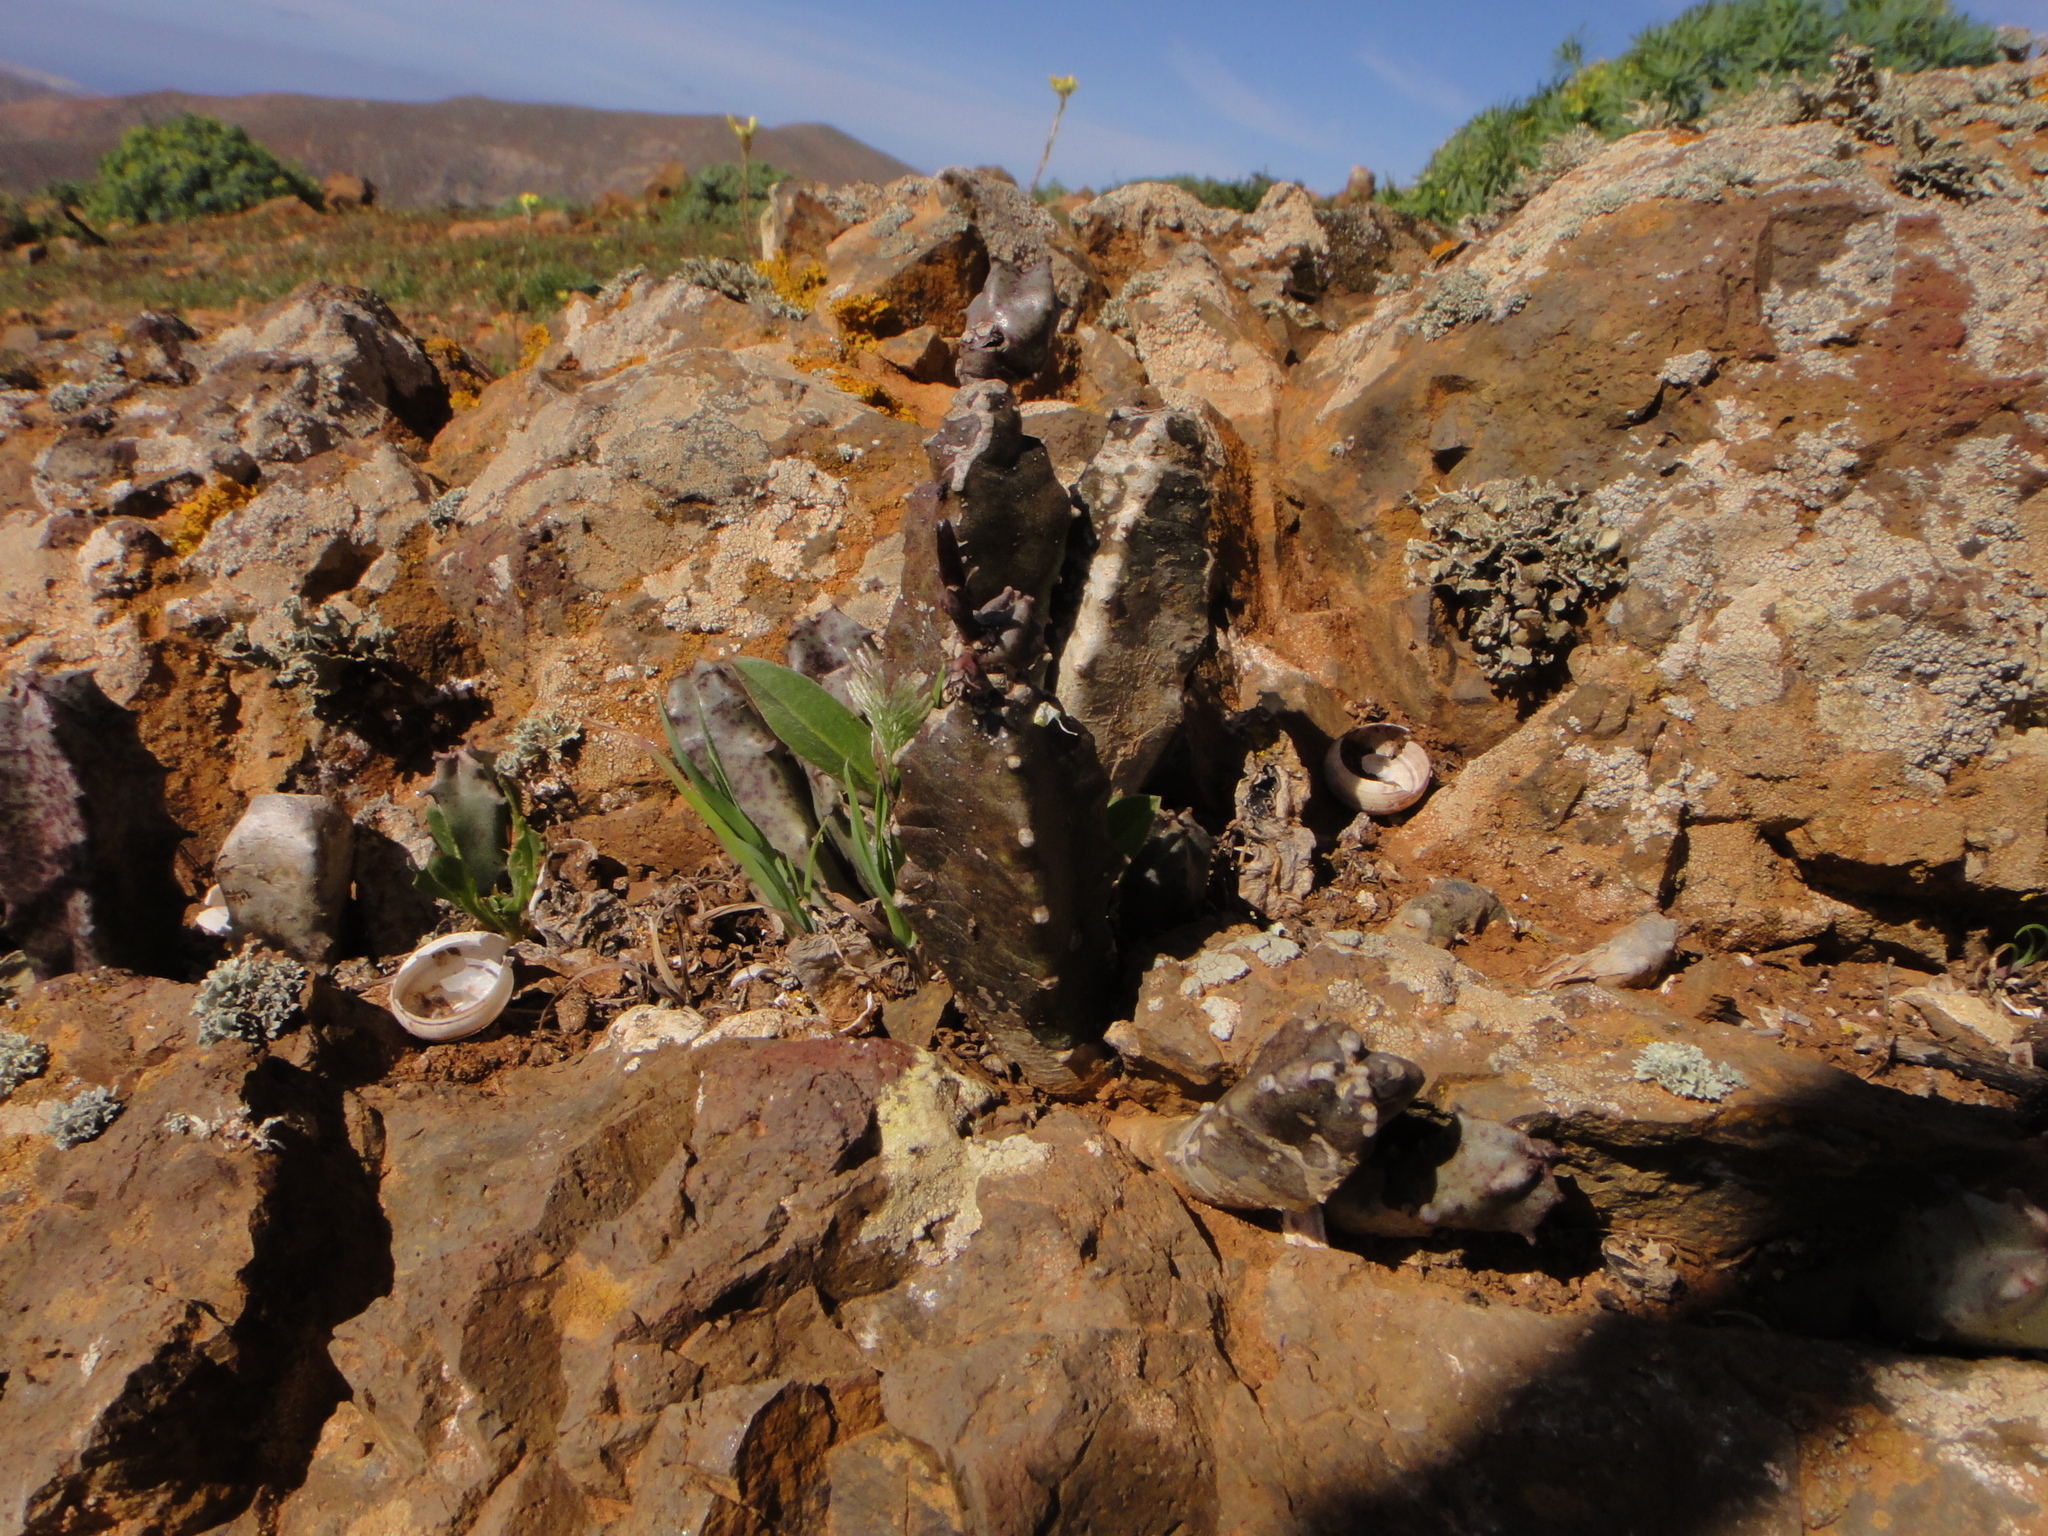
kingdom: Plantae
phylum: Tracheophyta
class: Magnoliopsida
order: Gentianales
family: Apocynaceae
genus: Ceropegia
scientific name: Ceropegia burchardii
